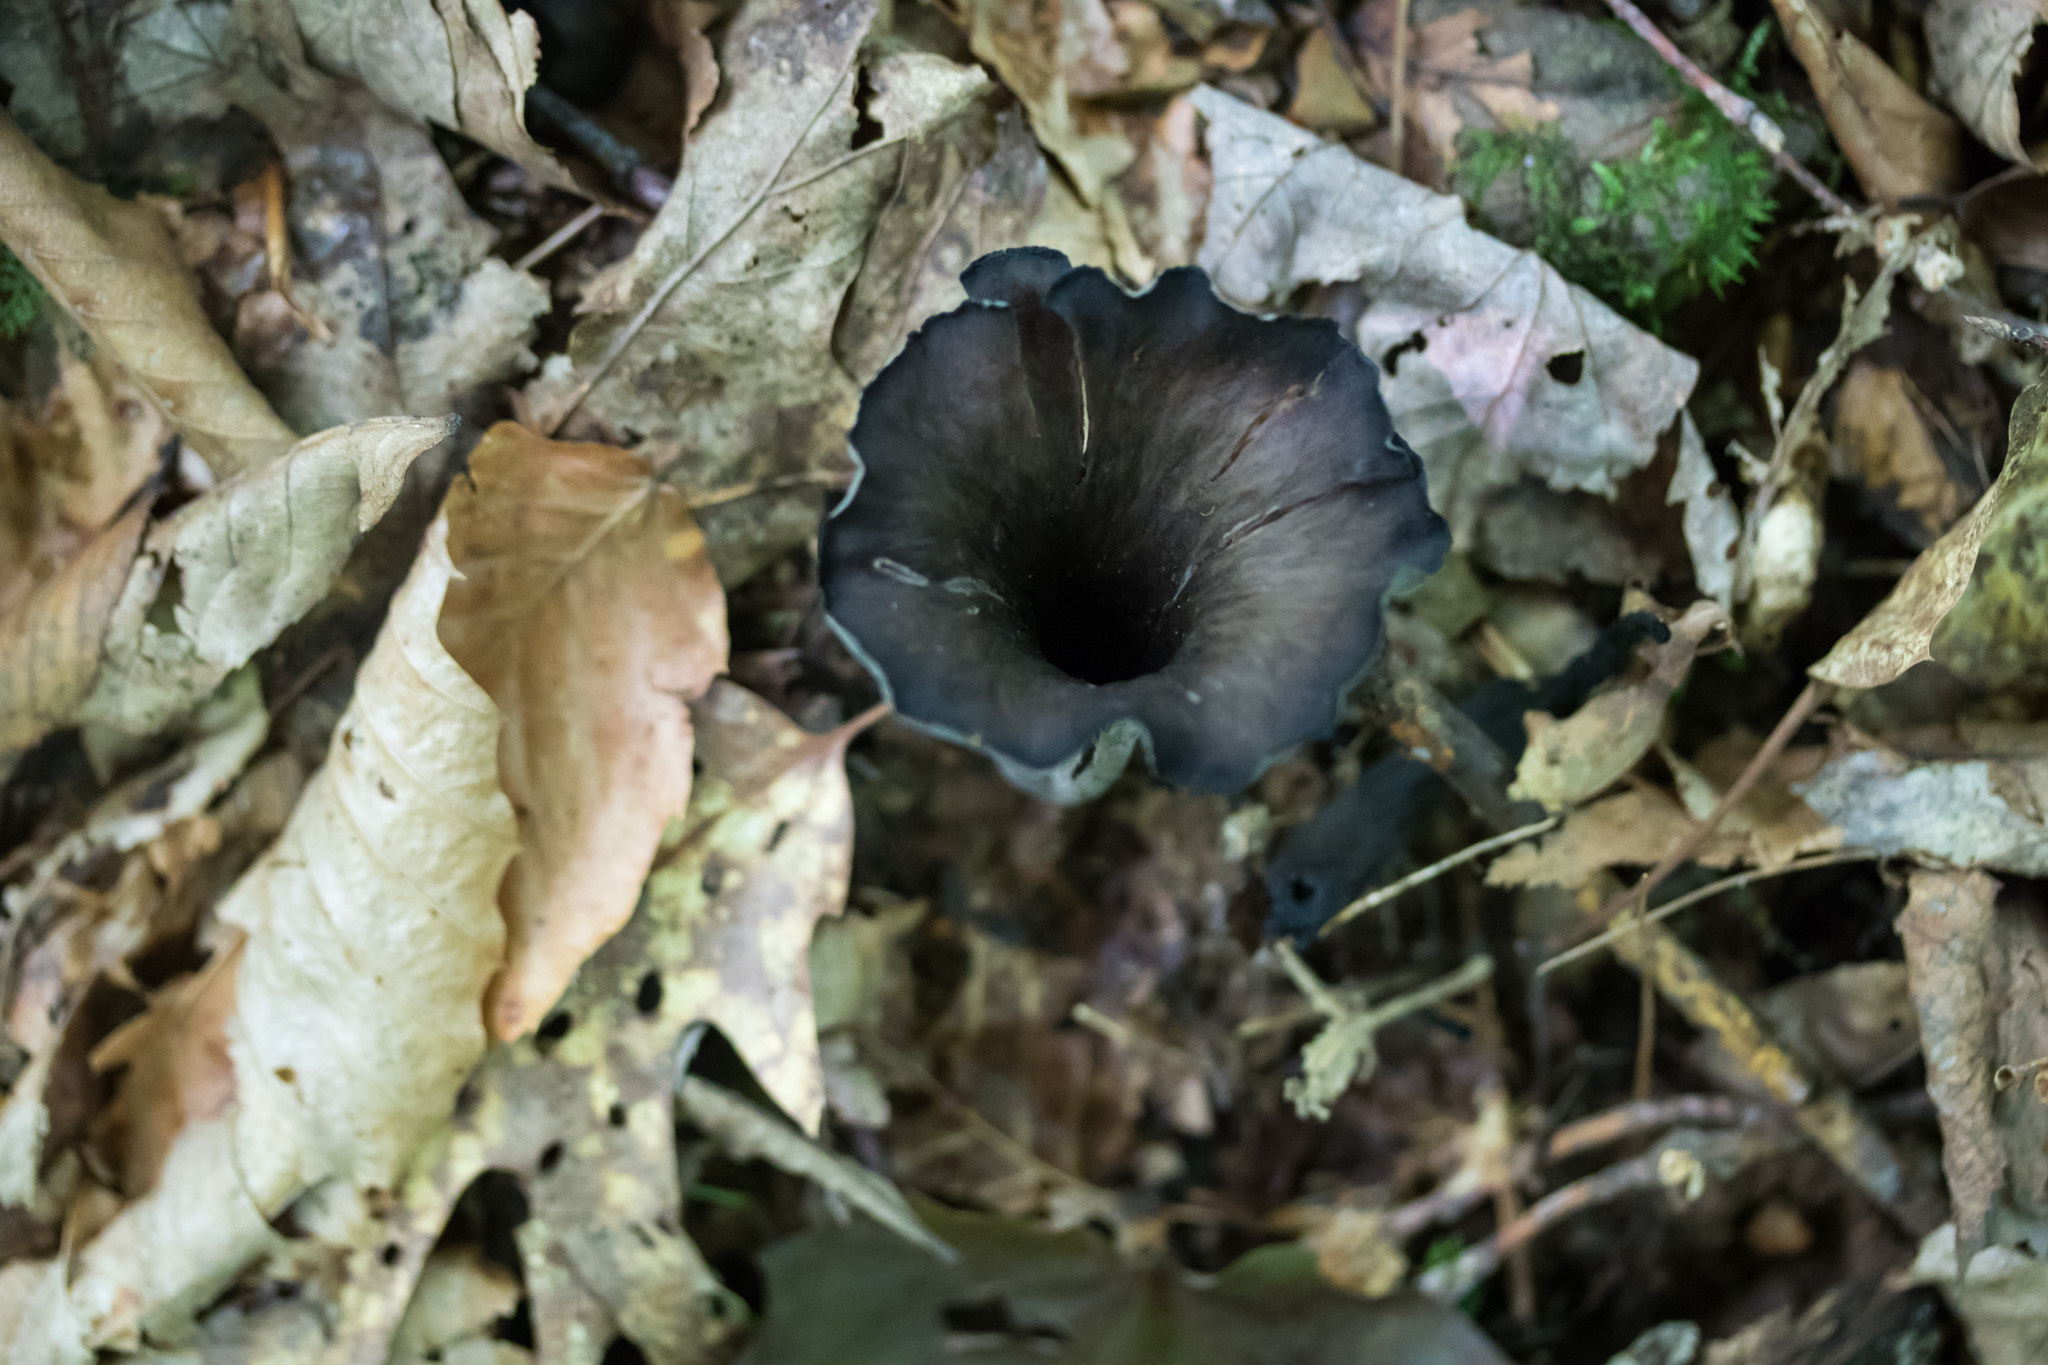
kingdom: Fungi
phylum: Basidiomycota
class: Agaricomycetes
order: Cantharellales
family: Hydnaceae
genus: Craterellus
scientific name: Craterellus cornucopioides
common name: Horn of plenty
